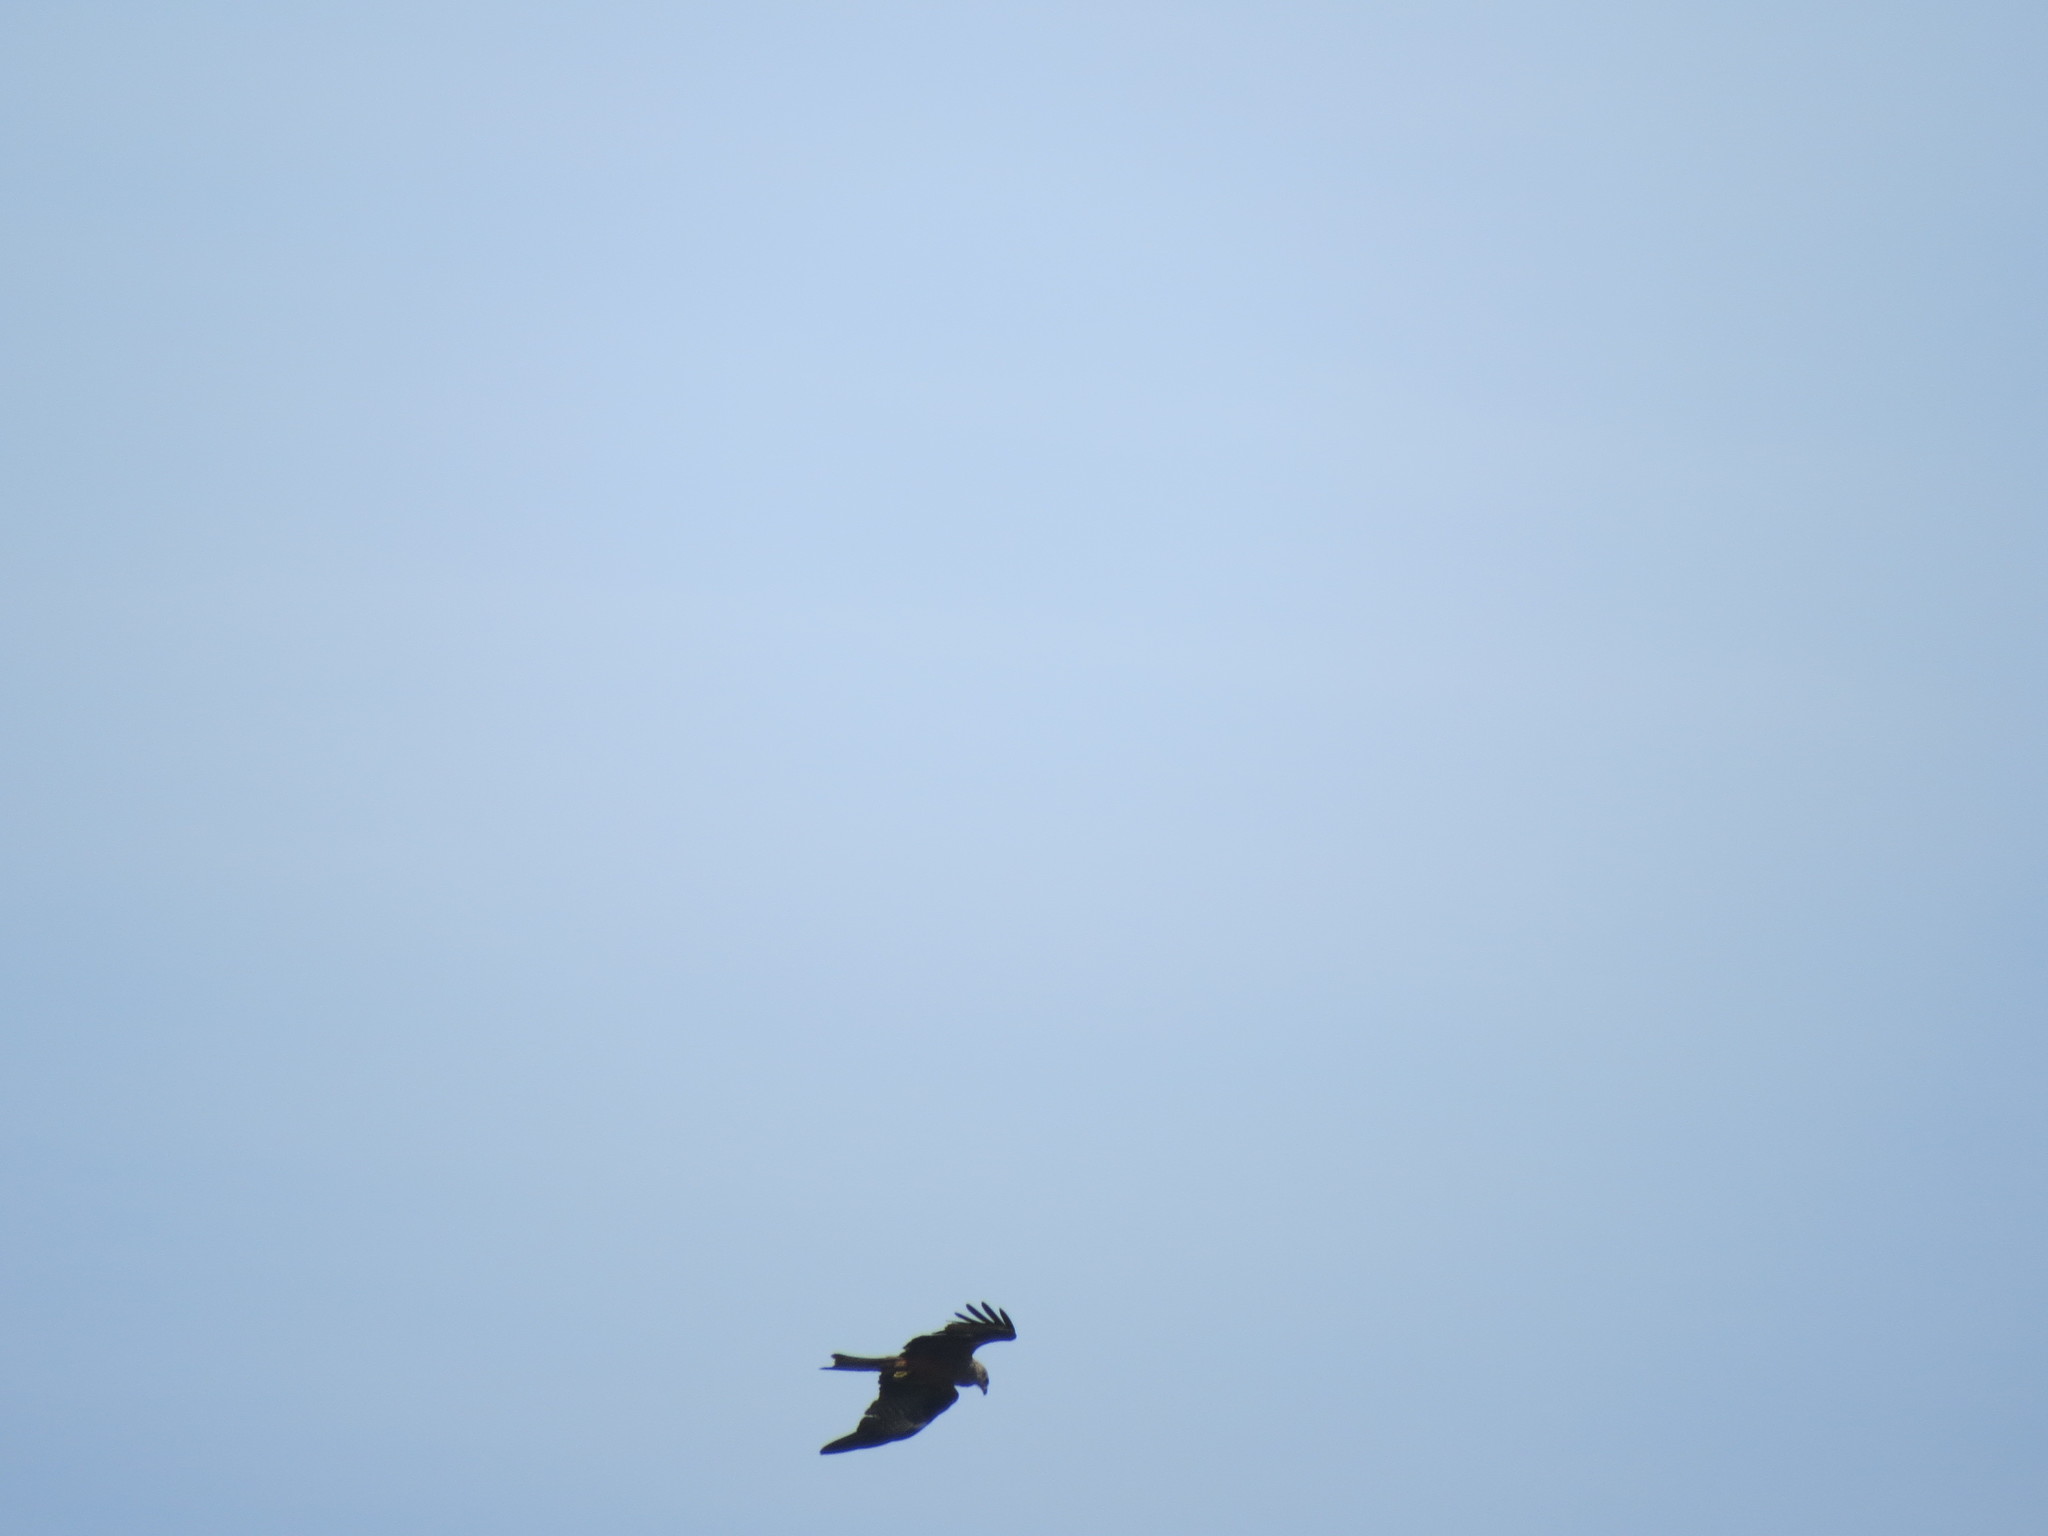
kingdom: Animalia
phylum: Chordata
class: Aves
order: Accipitriformes
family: Accipitridae
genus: Milvus
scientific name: Milvus migrans
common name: Black kite
